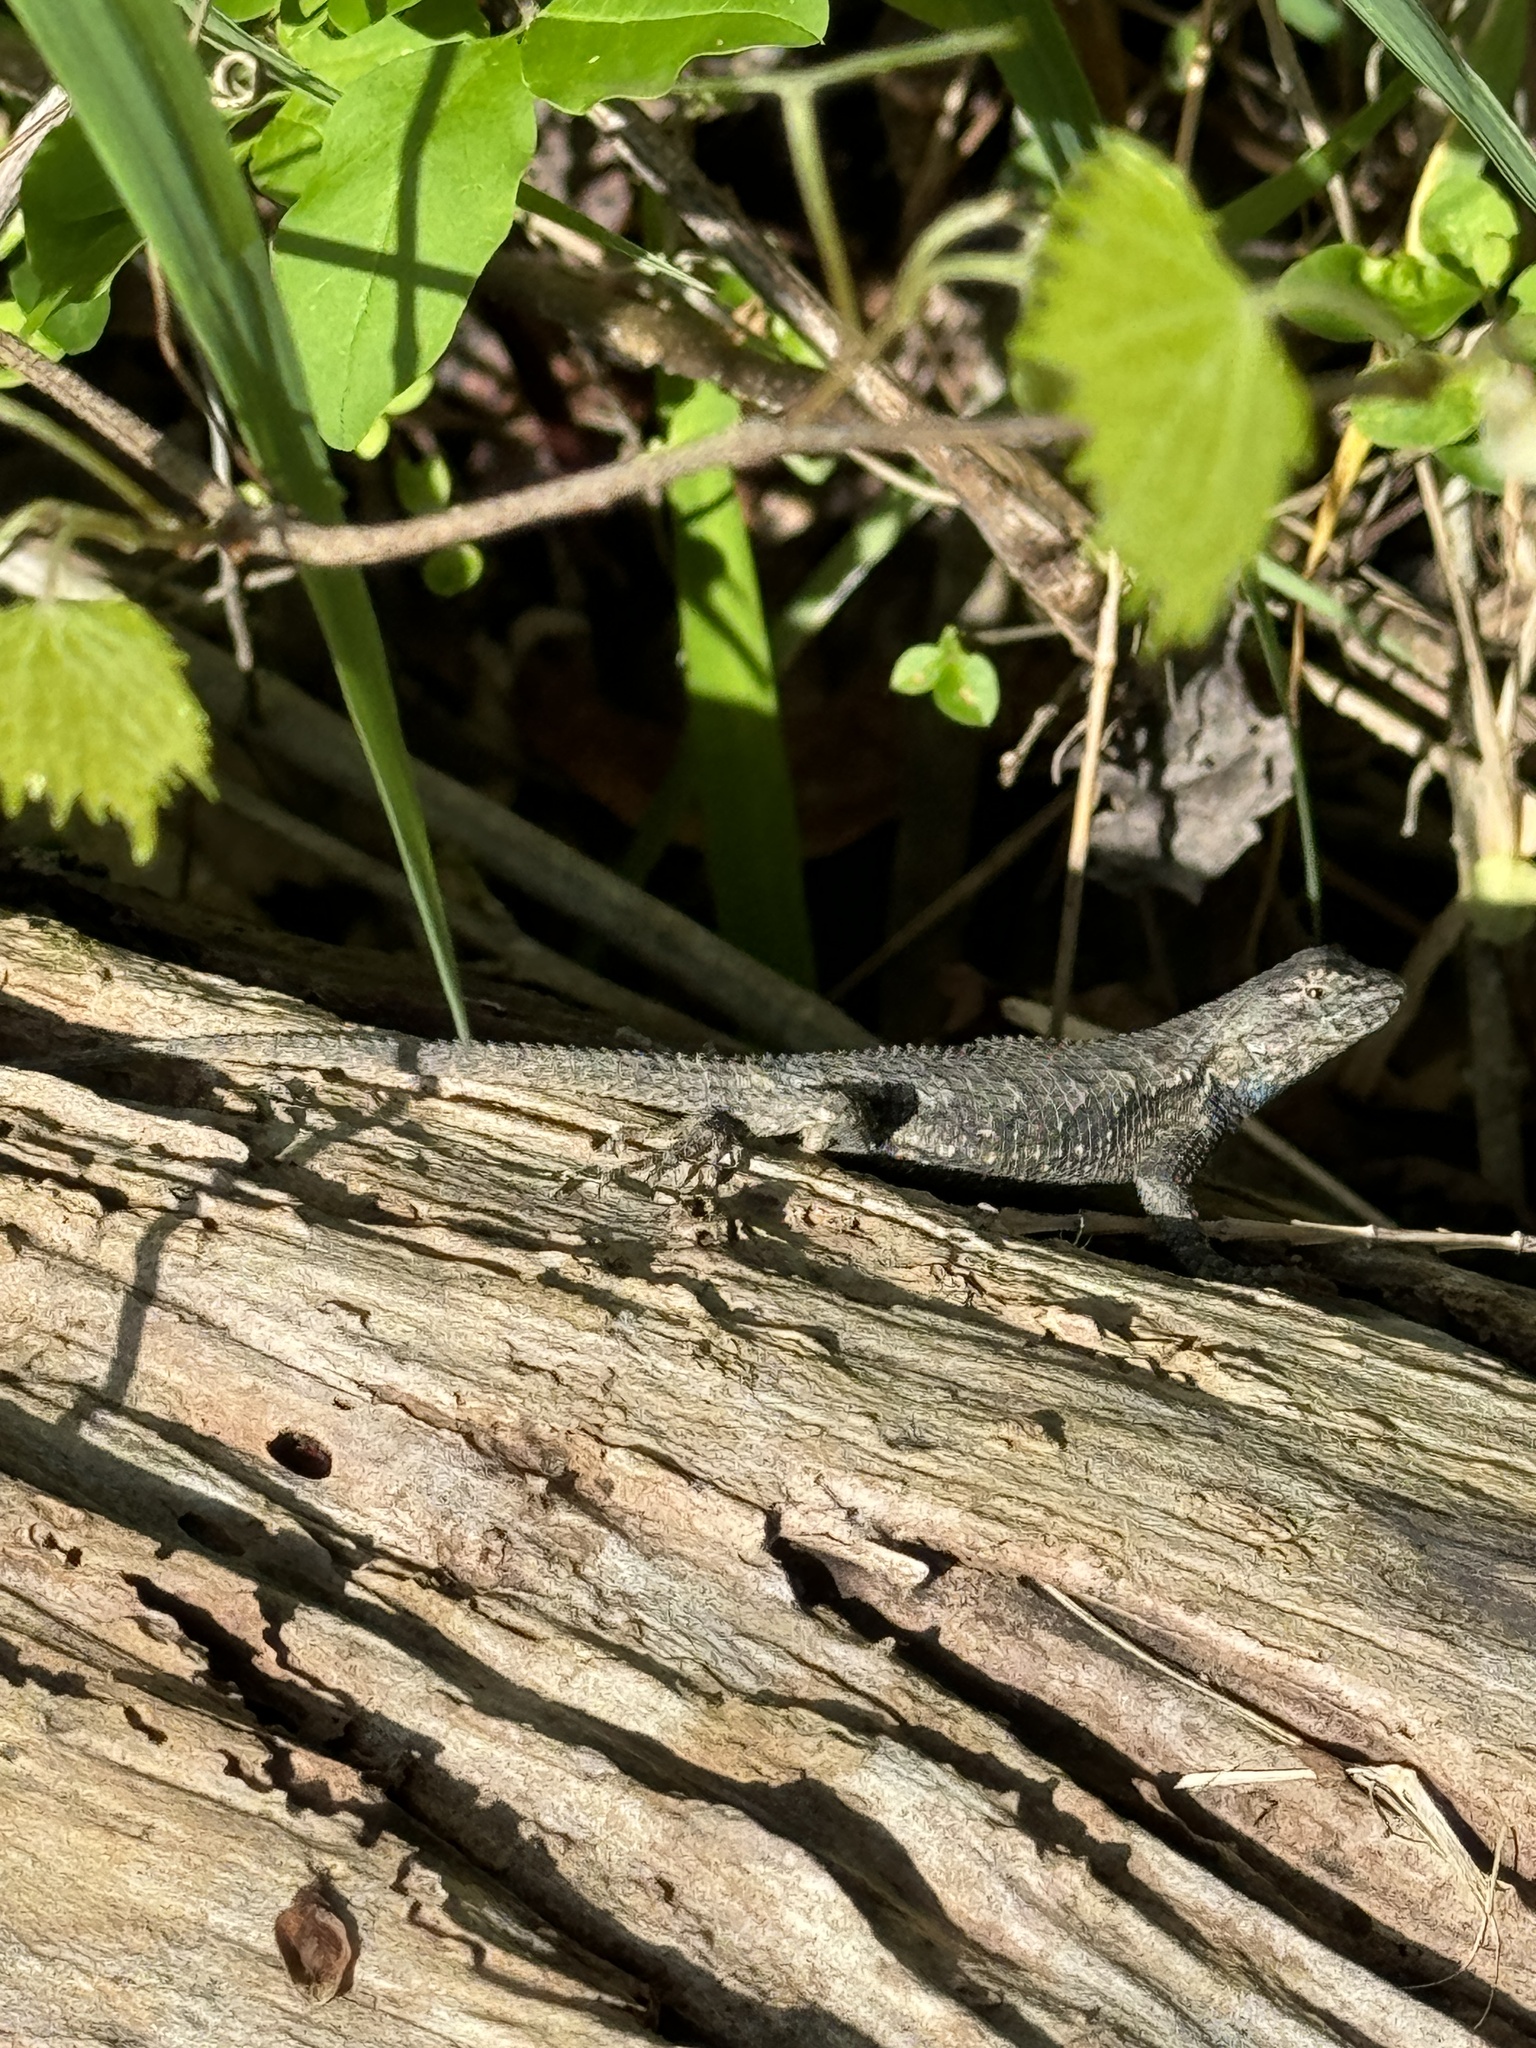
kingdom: Animalia
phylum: Chordata
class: Squamata
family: Phrynosomatidae
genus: Sceloporus
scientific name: Sceloporus undulatus
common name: Eastern fence lizard
